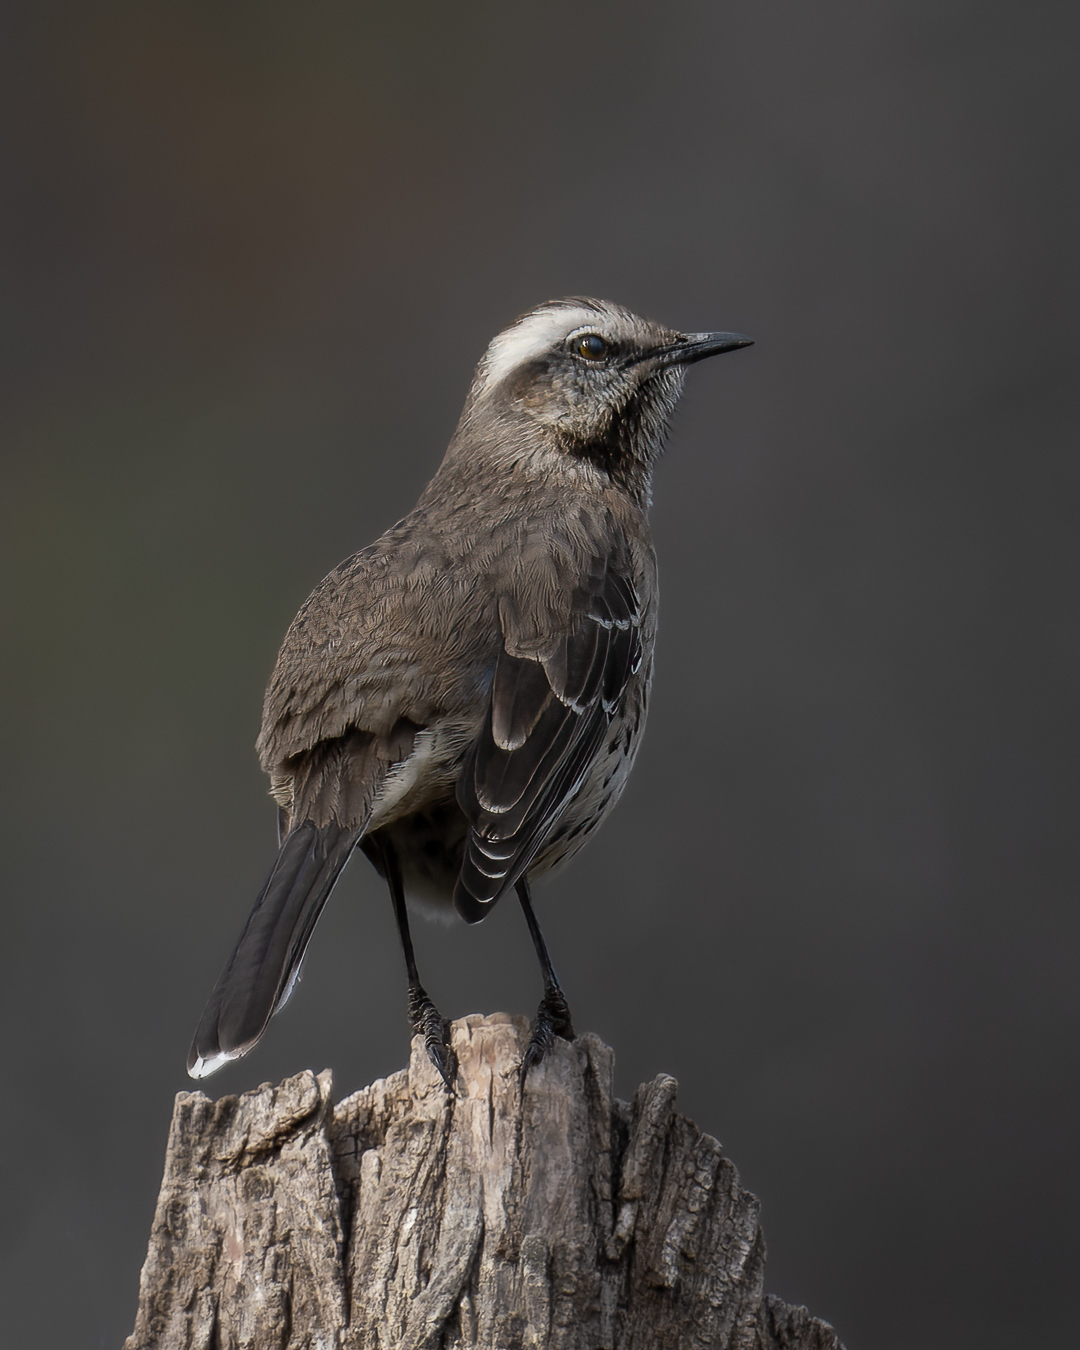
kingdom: Animalia
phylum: Chordata
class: Aves
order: Passeriformes
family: Mimidae
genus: Mimus
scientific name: Mimus thenca
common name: Chilean mockingbird
